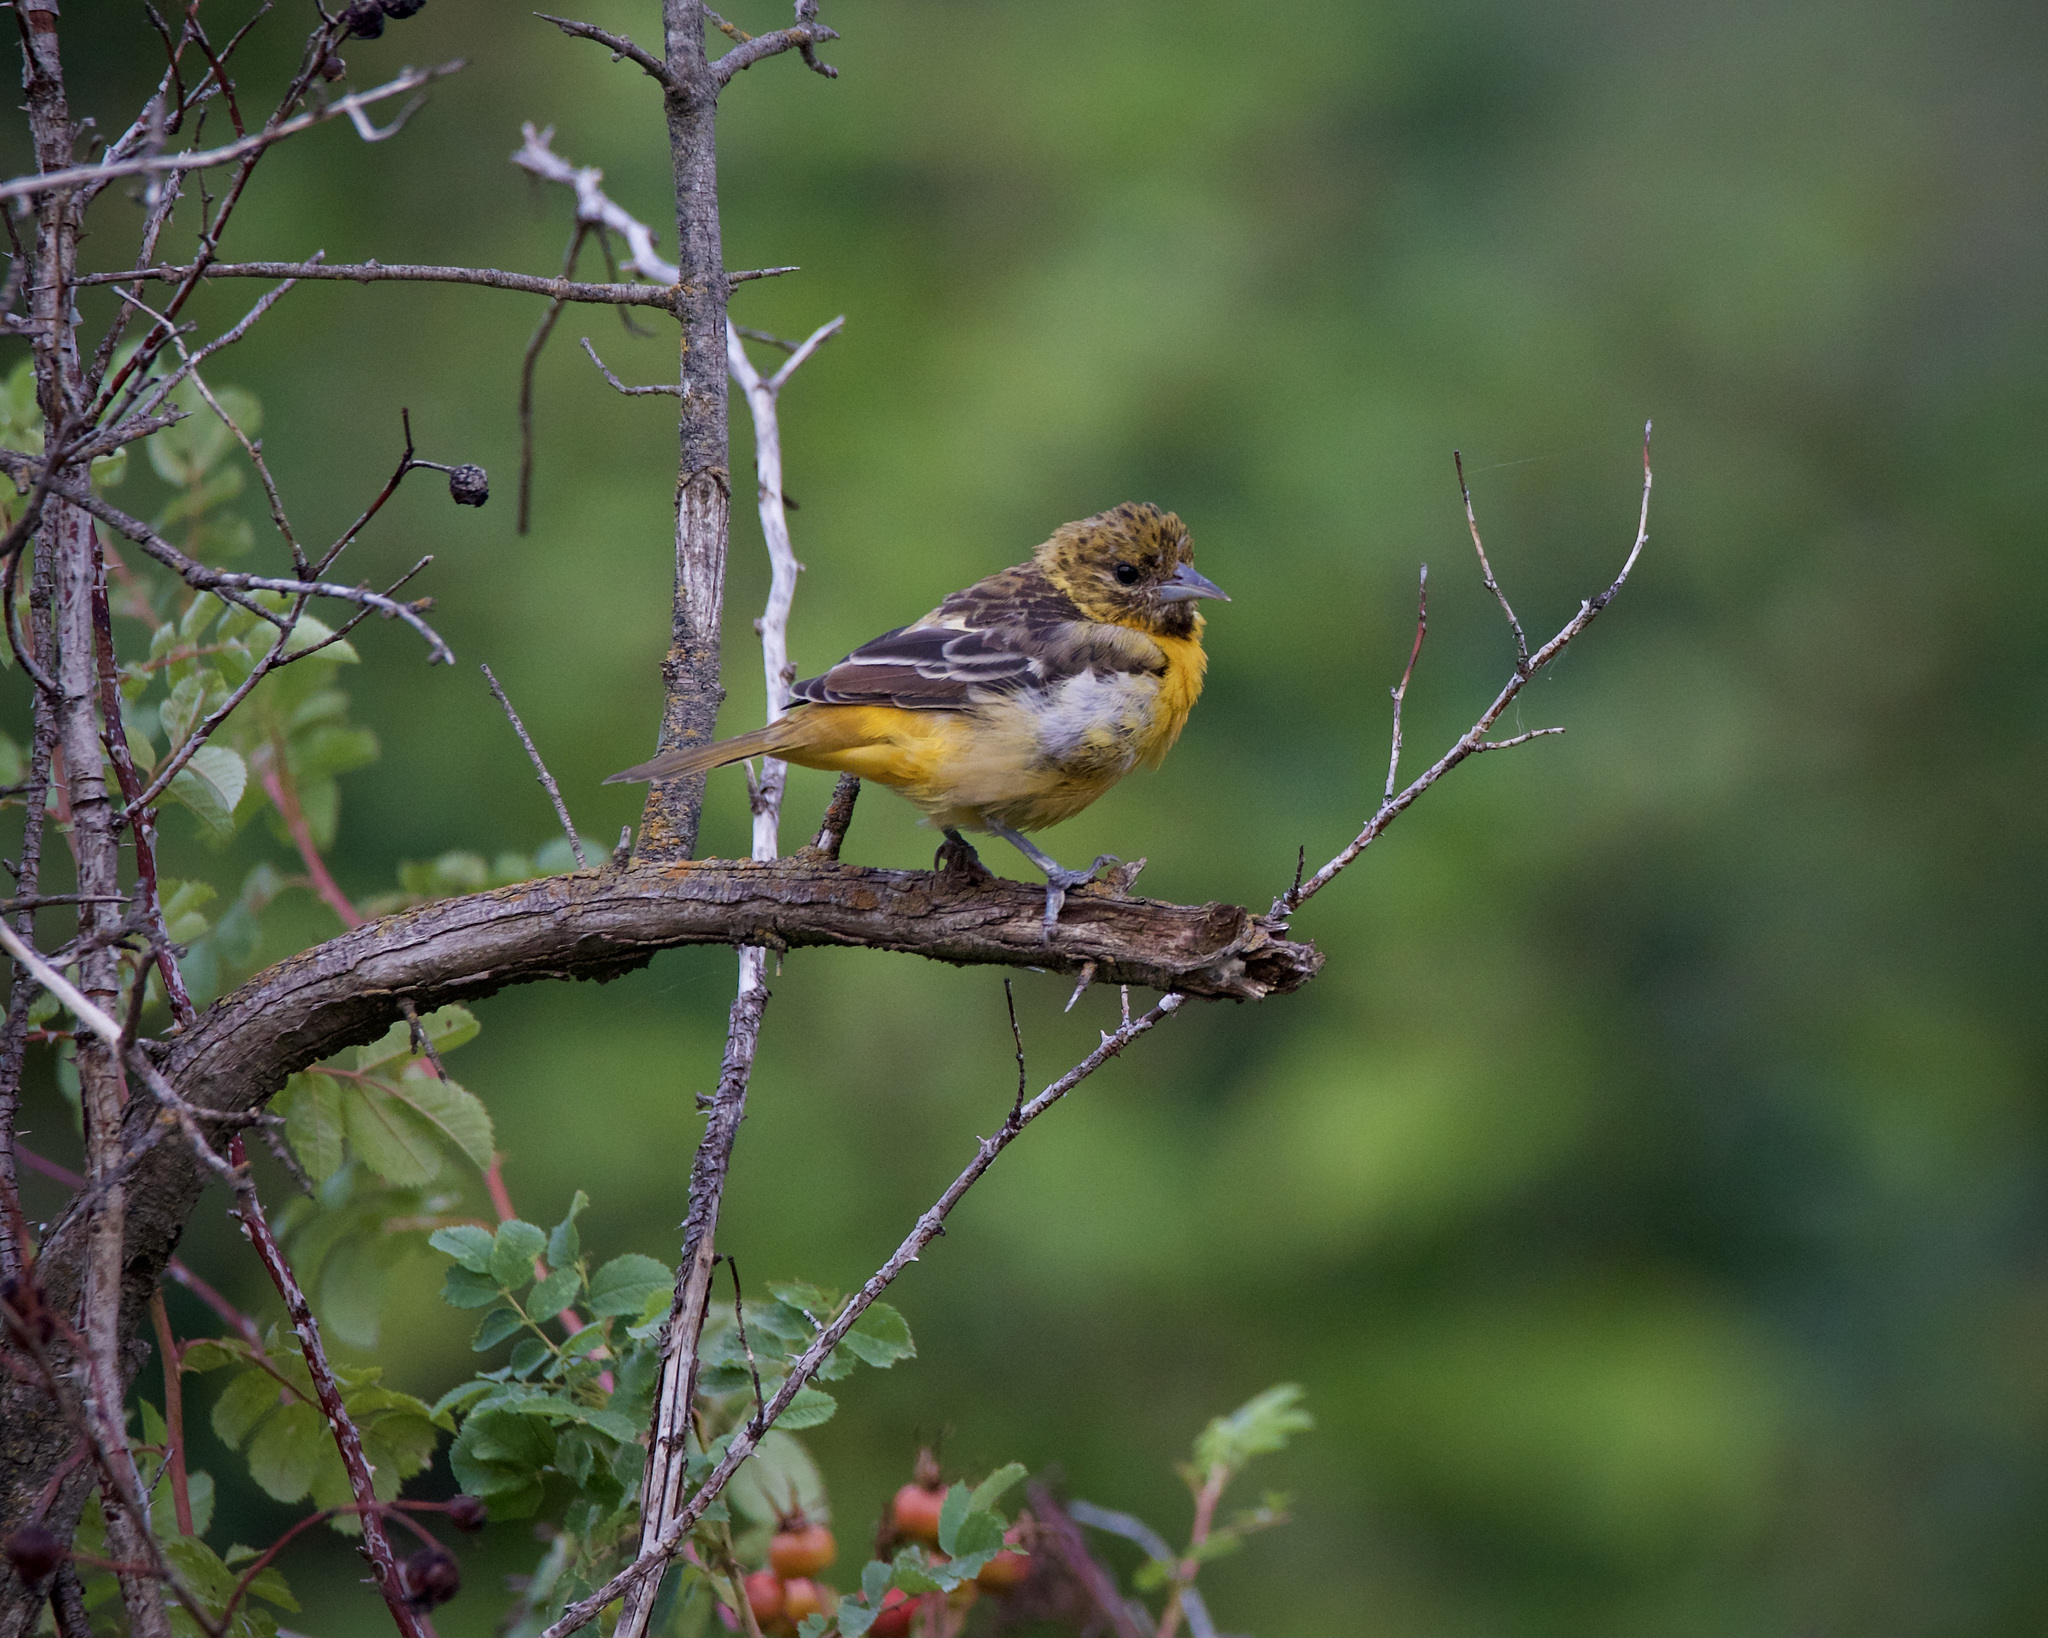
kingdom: Animalia
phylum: Chordata
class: Aves
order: Passeriformes
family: Icteridae
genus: Icterus
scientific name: Icterus galbula
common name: Baltimore oriole
